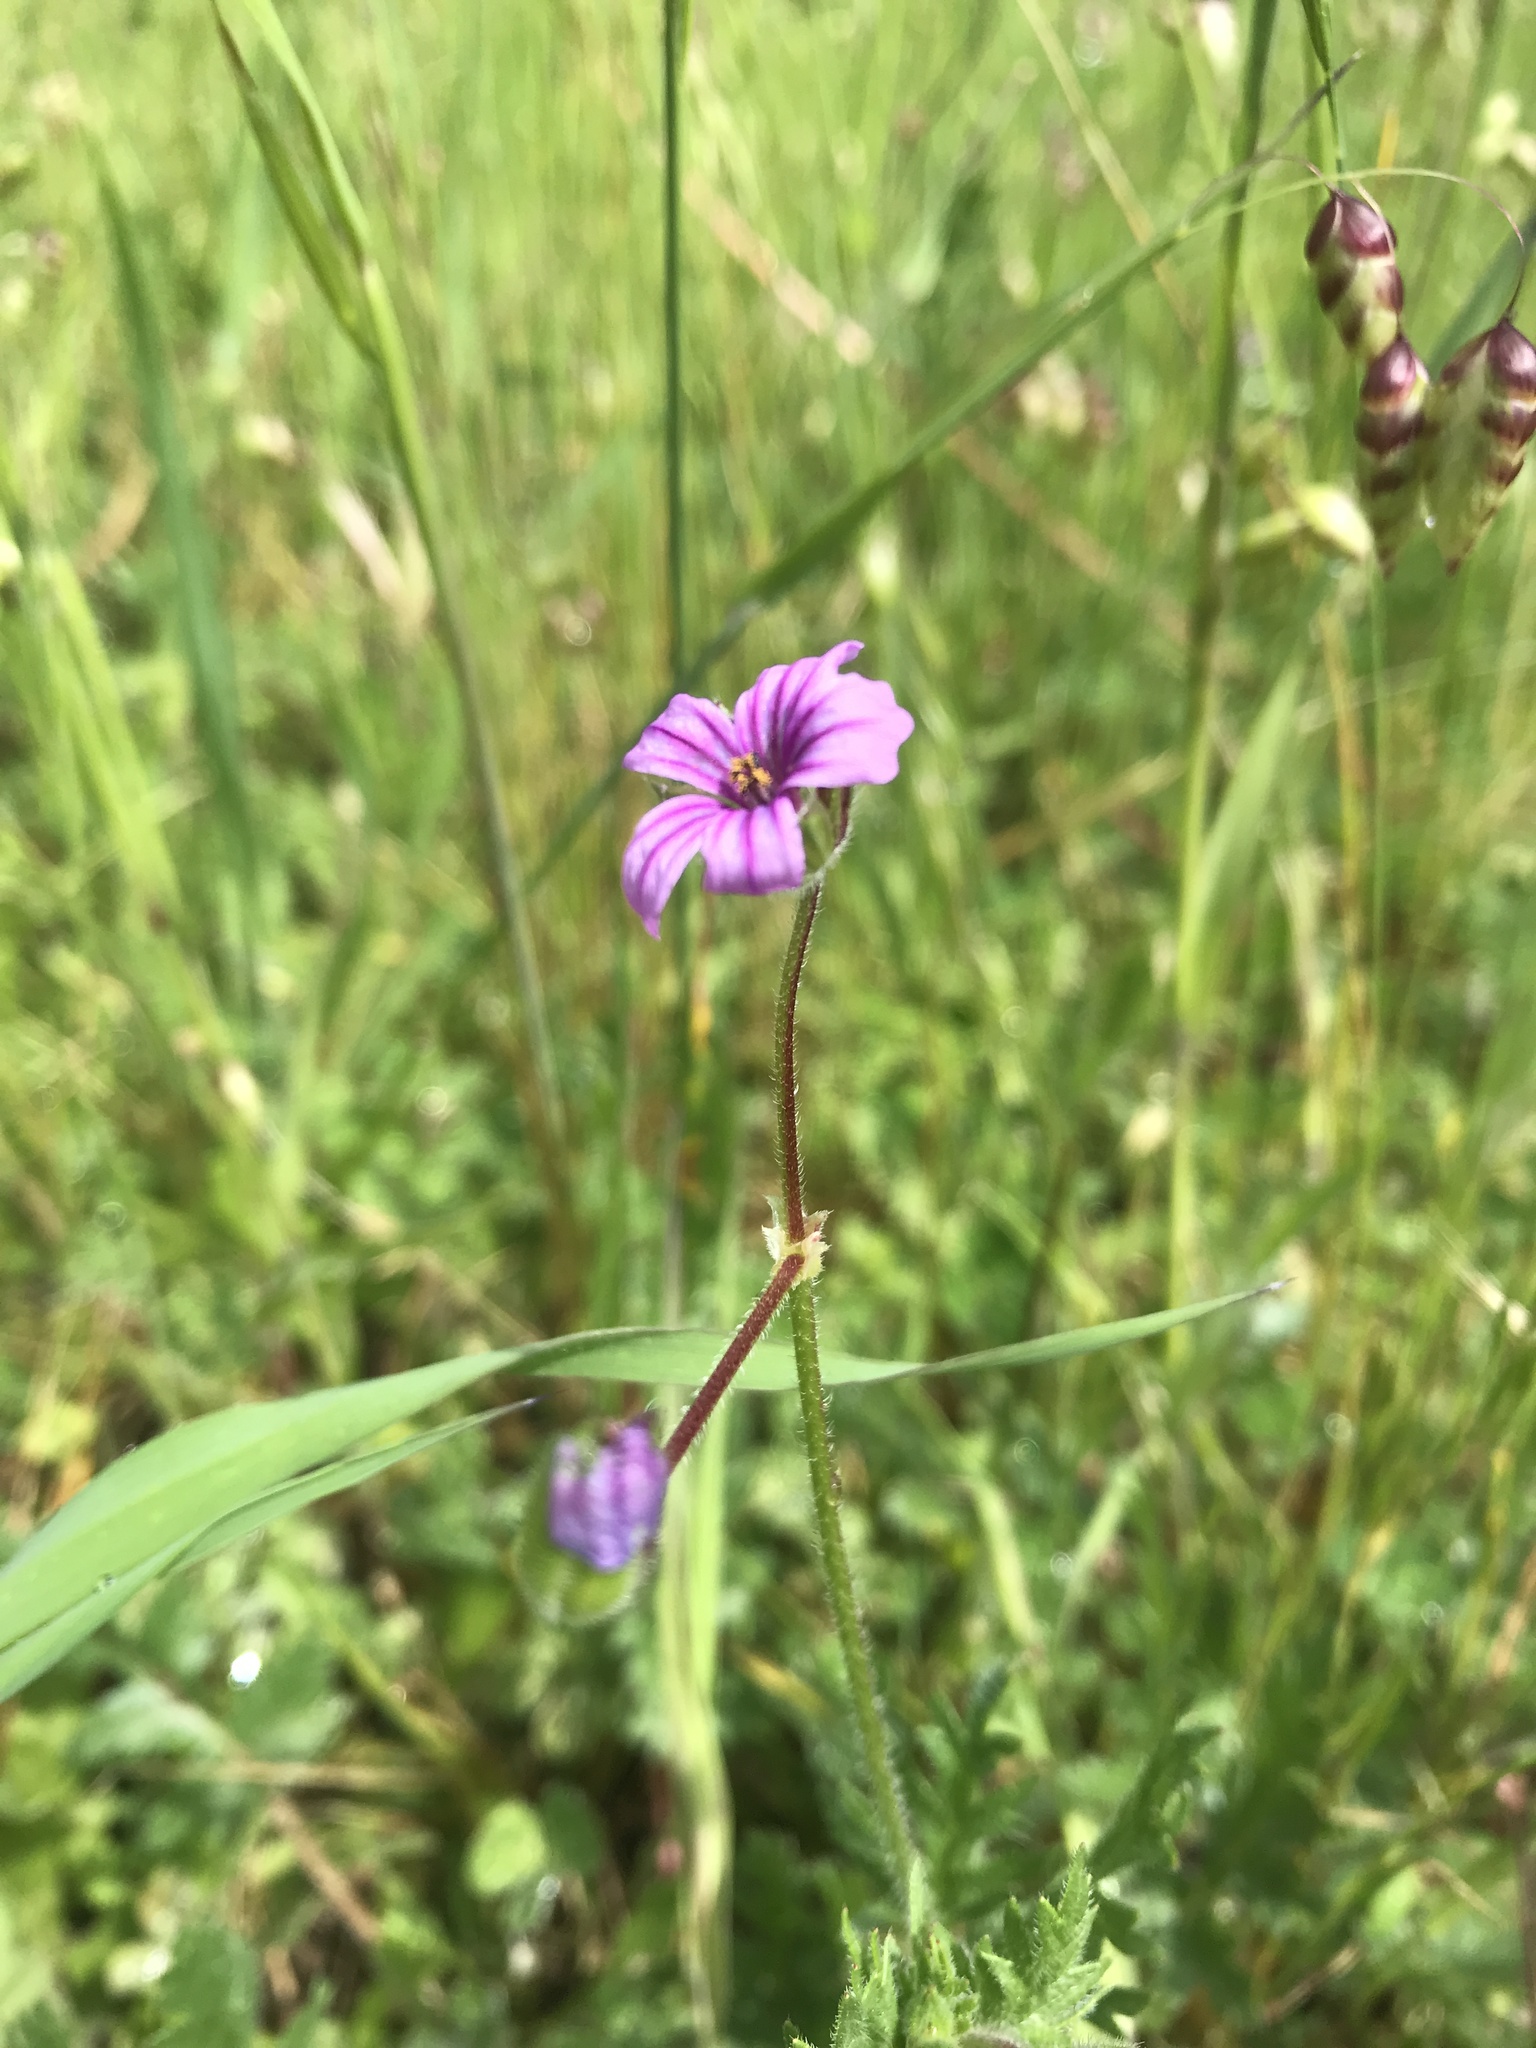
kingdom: Plantae
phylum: Tracheophyta
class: Magnoliopsida
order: Geraniales
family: Geraniaceae
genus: Erodium
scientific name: Erodium botrys
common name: Mediterranean stork's-bill
